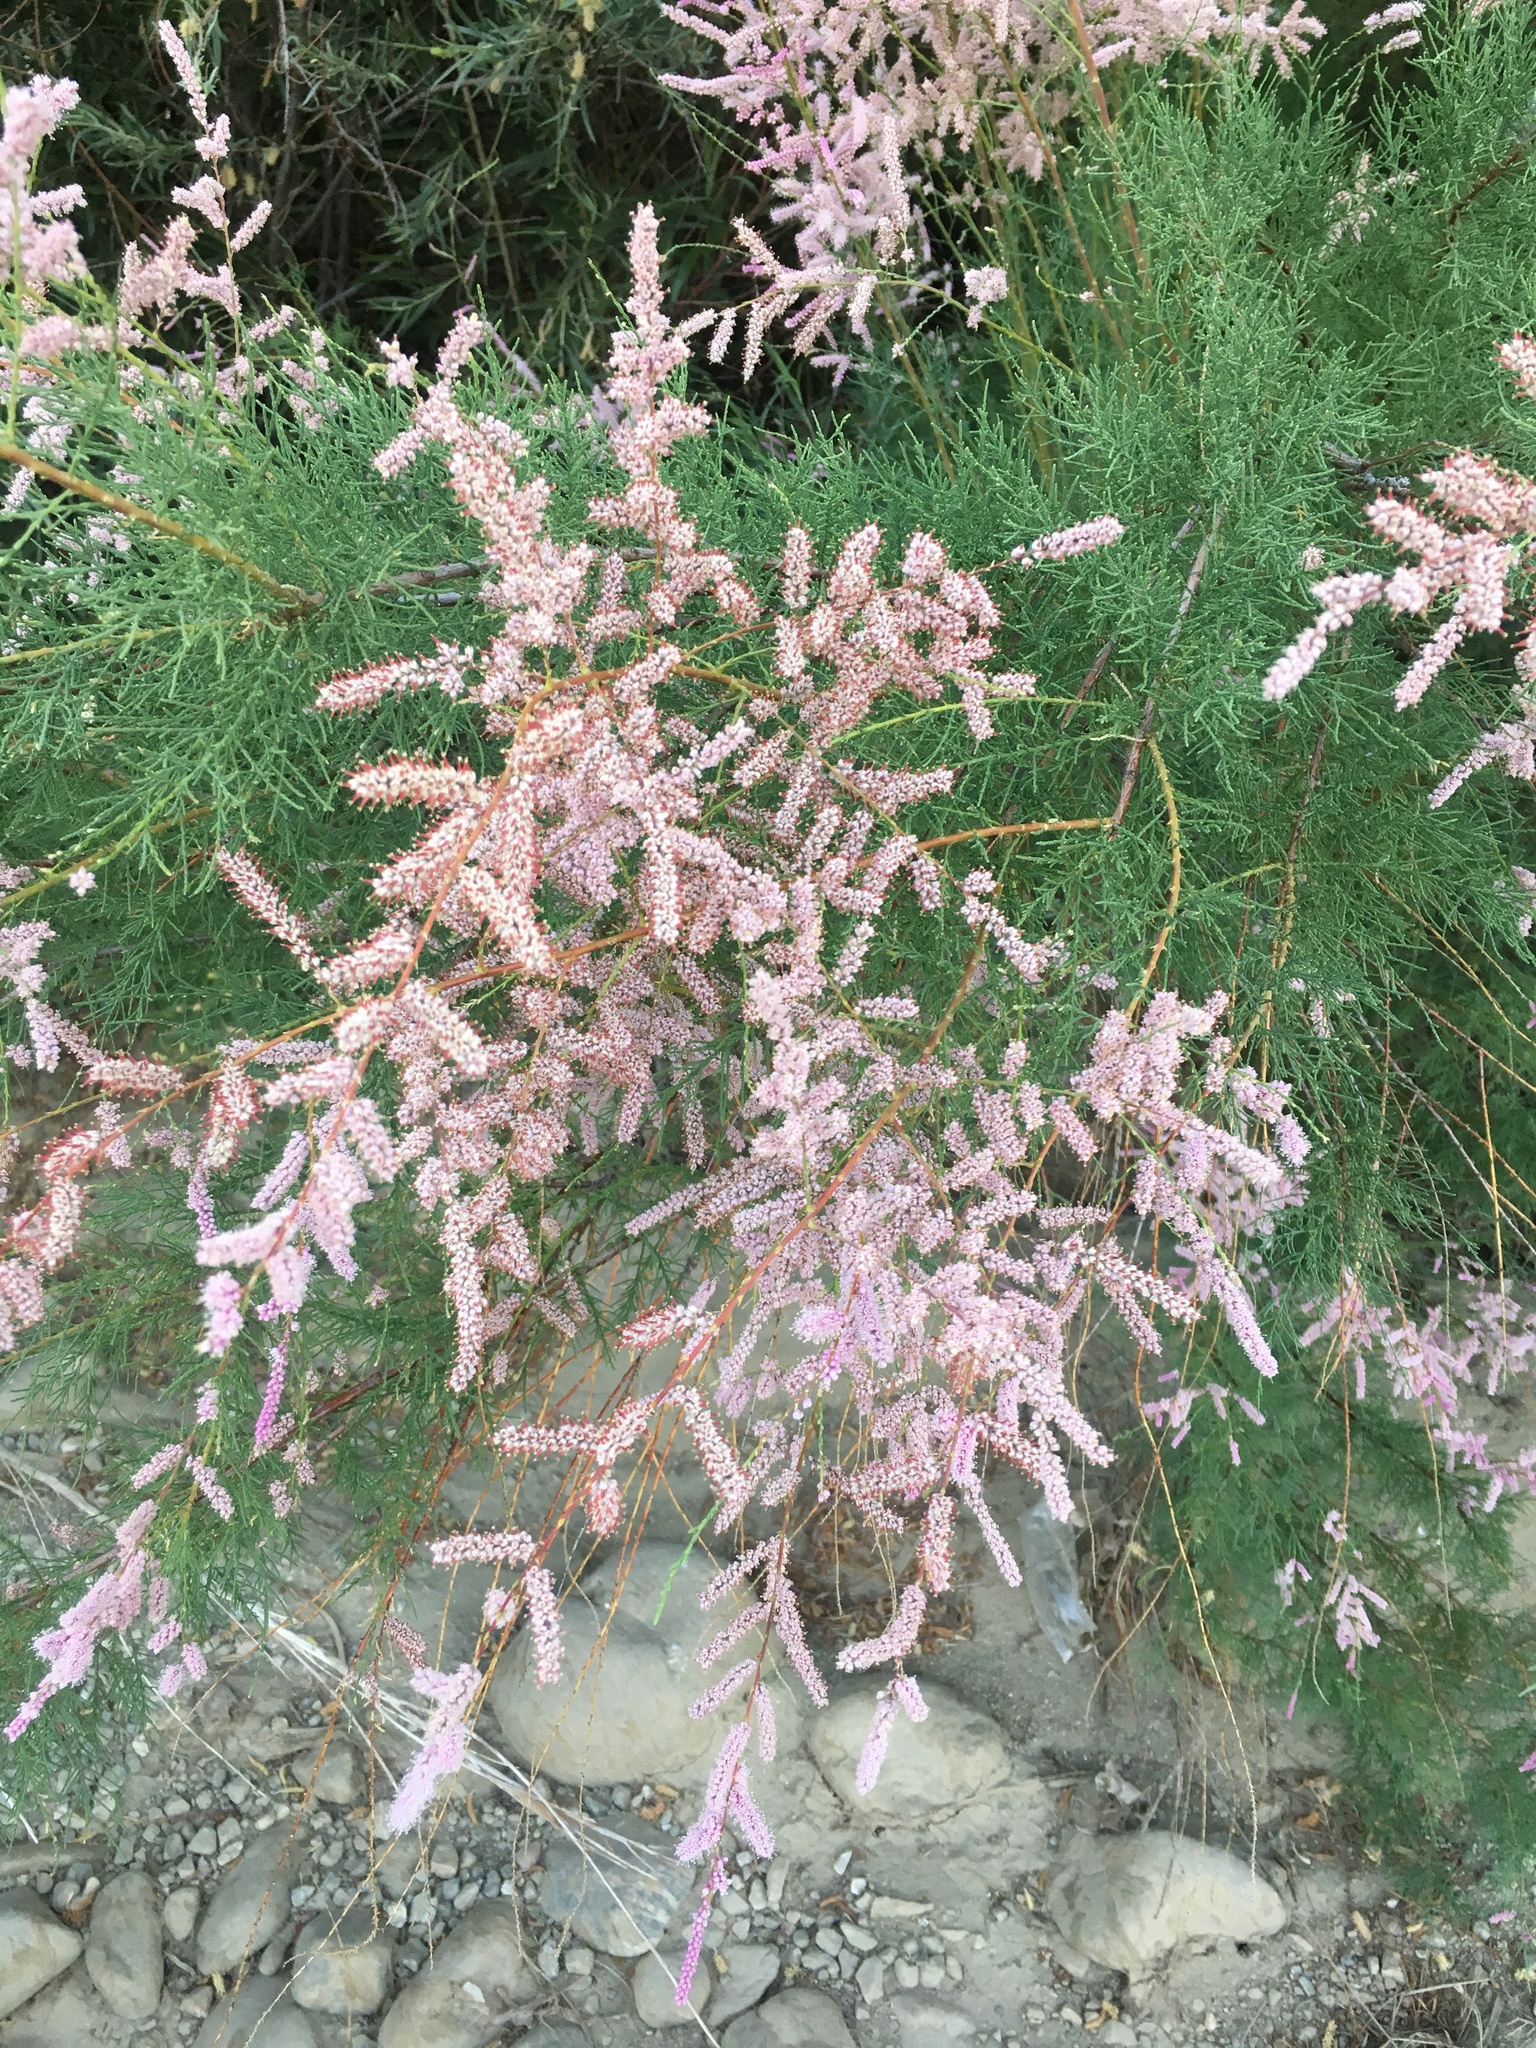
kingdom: Plantae
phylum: Tracheophyta
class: Magnoliopsida
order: Caryophyllales
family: Tamaricaceae
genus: Tamarix
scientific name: Tamarix ramosissima
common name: Pink tamarisk
